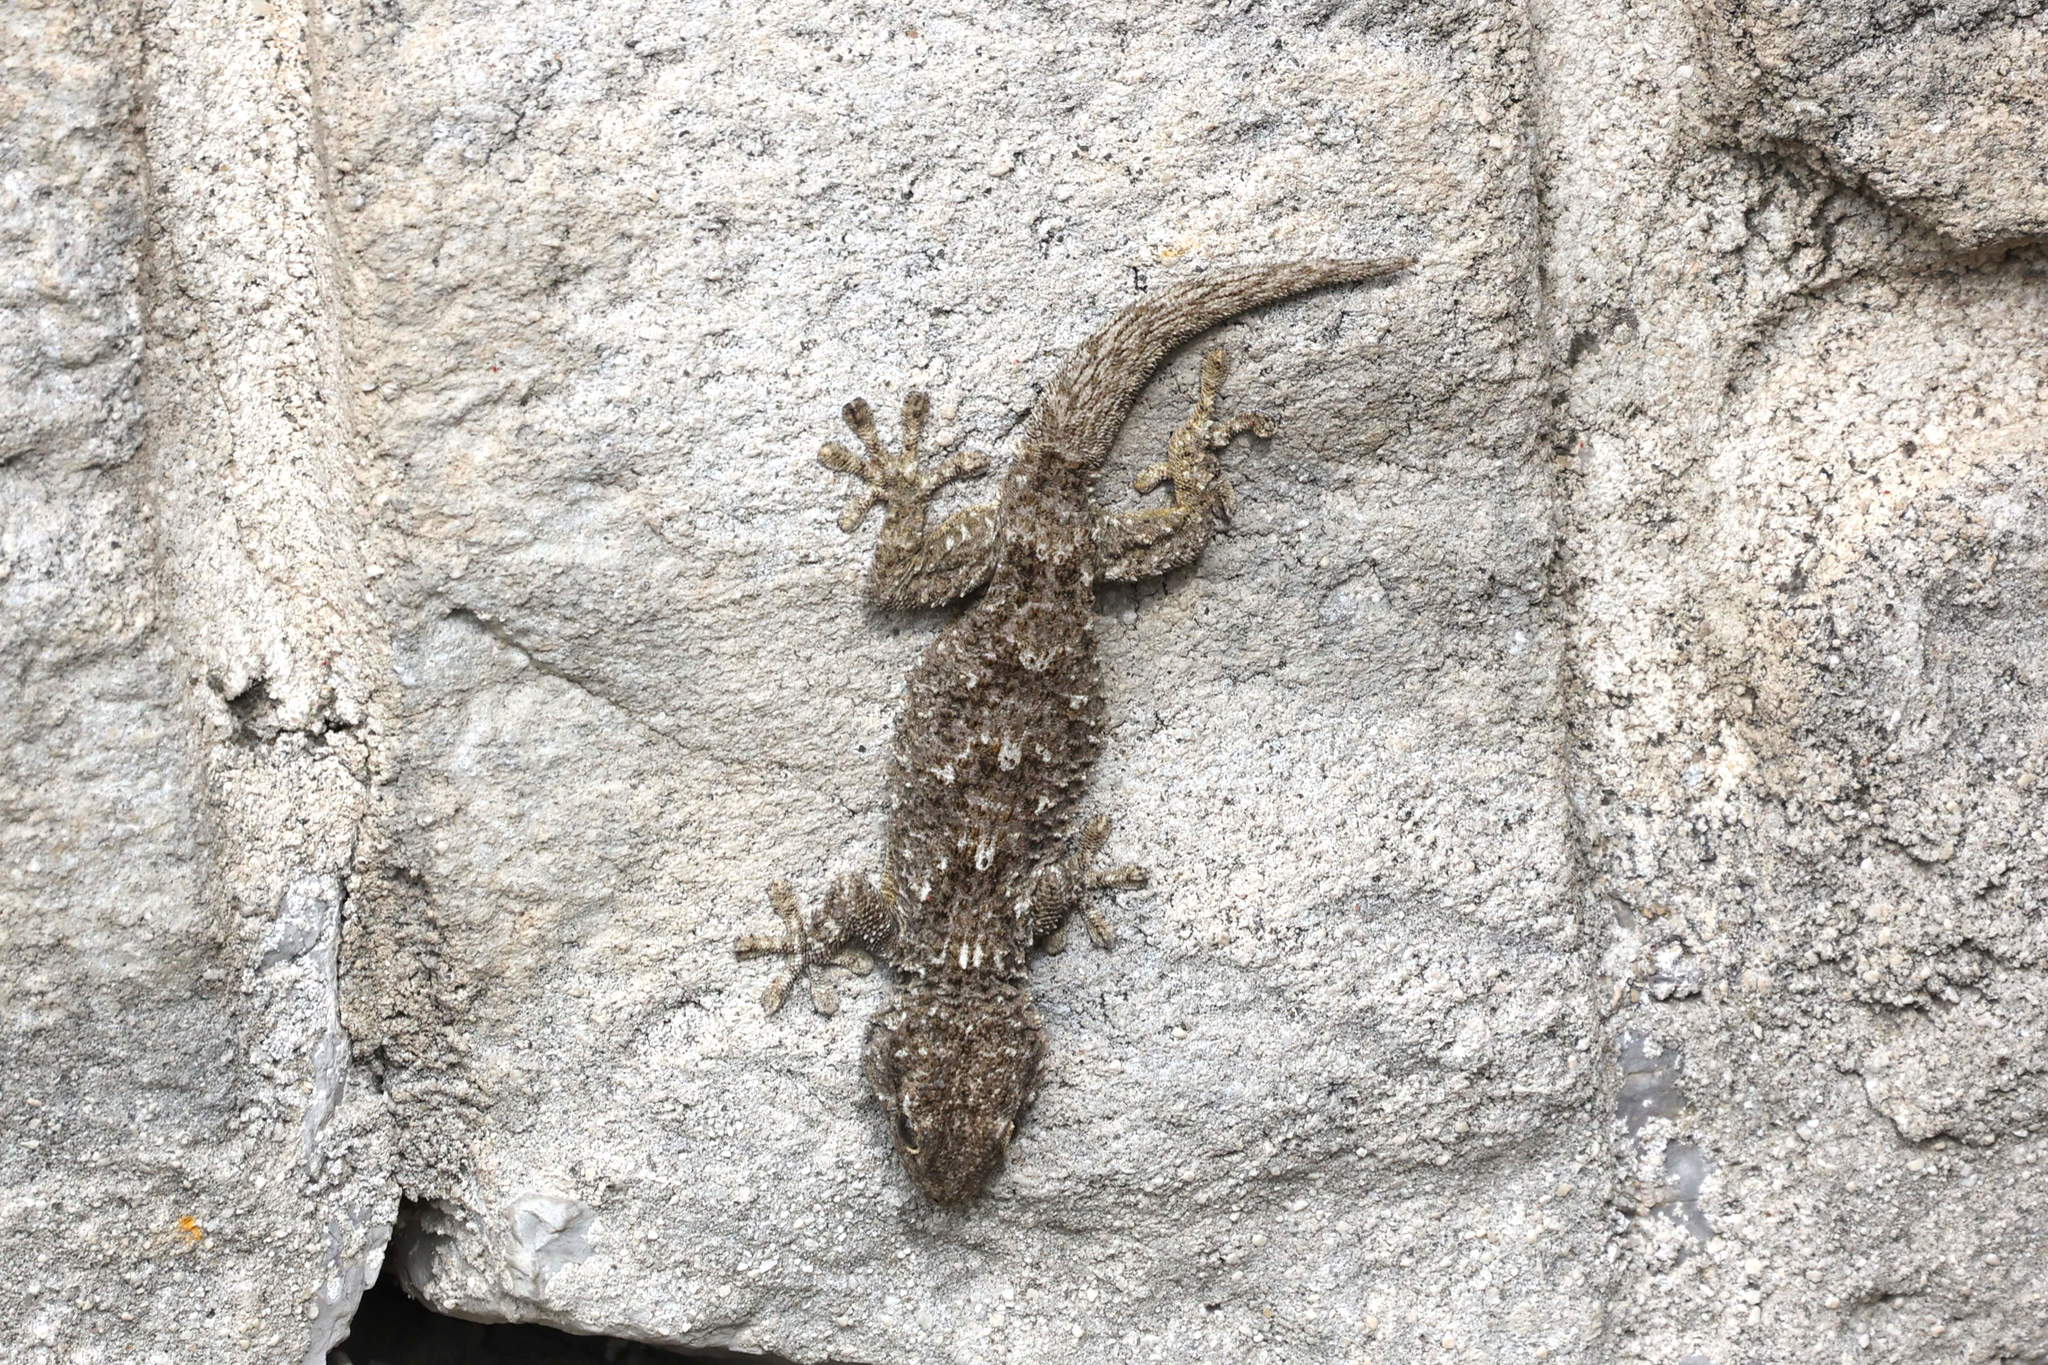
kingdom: Animalia
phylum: Chordata
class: Squamata
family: Phyllodactylidae
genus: Tarentola
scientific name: Tarentola mauritanica
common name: Moorish gecko
